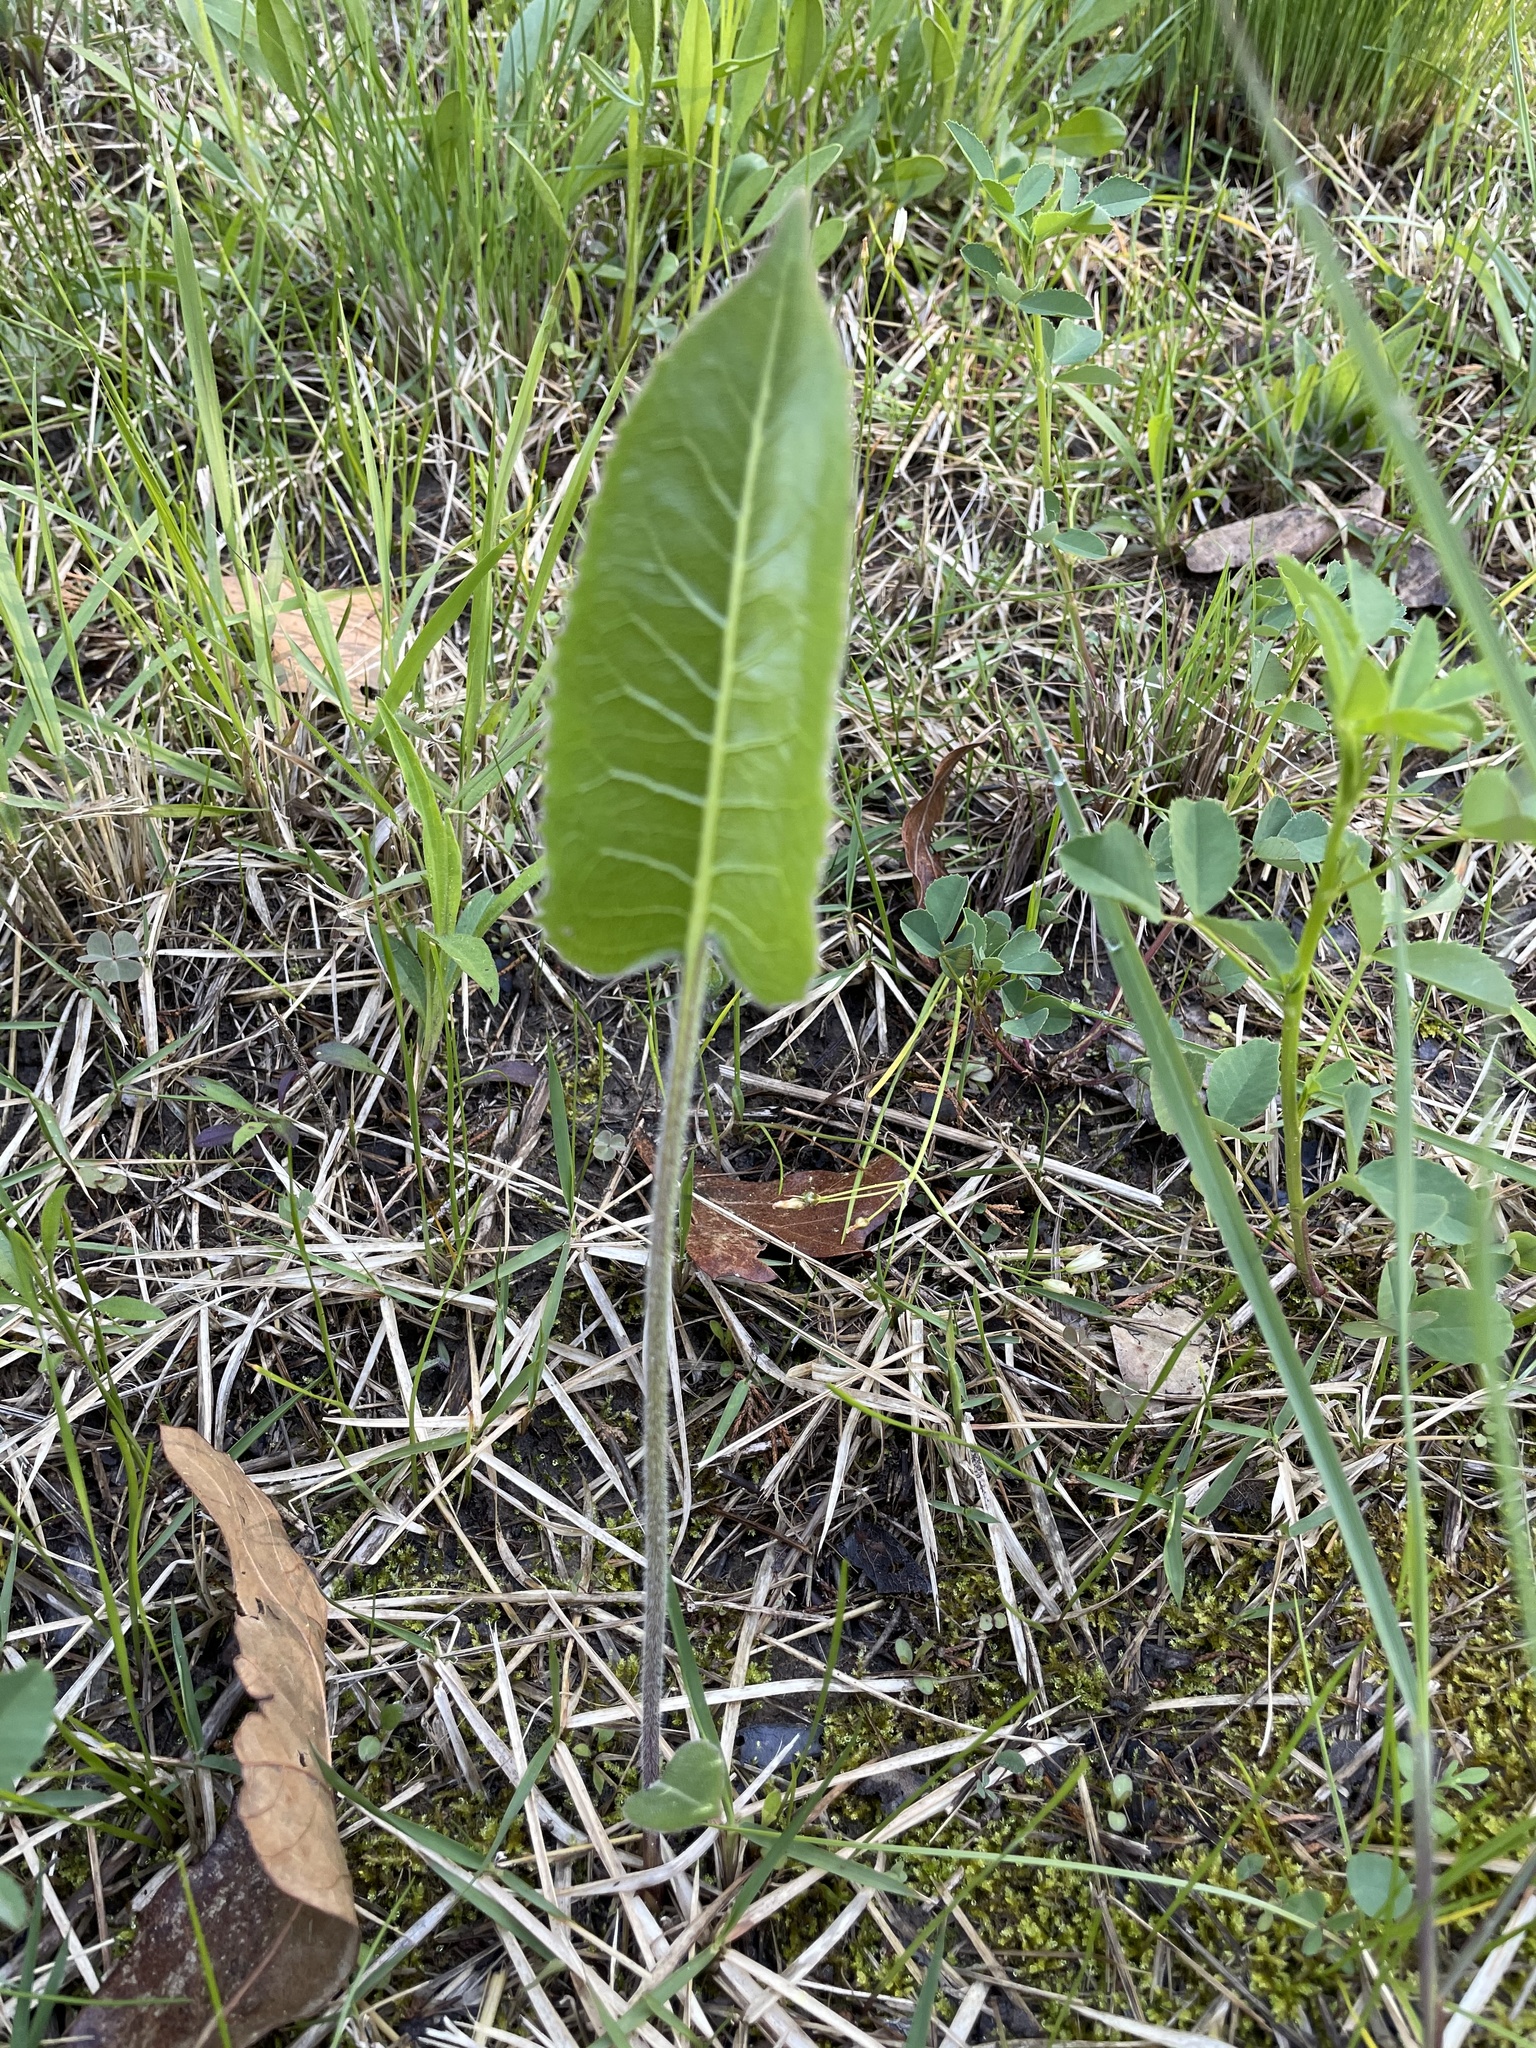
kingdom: Plantae
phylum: Tracheophyta
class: Magnoliopsida
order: Asterales
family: Asteraceae
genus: Silphium
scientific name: Silphium terebinthinaceum
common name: Basal-leaf rosinweed
